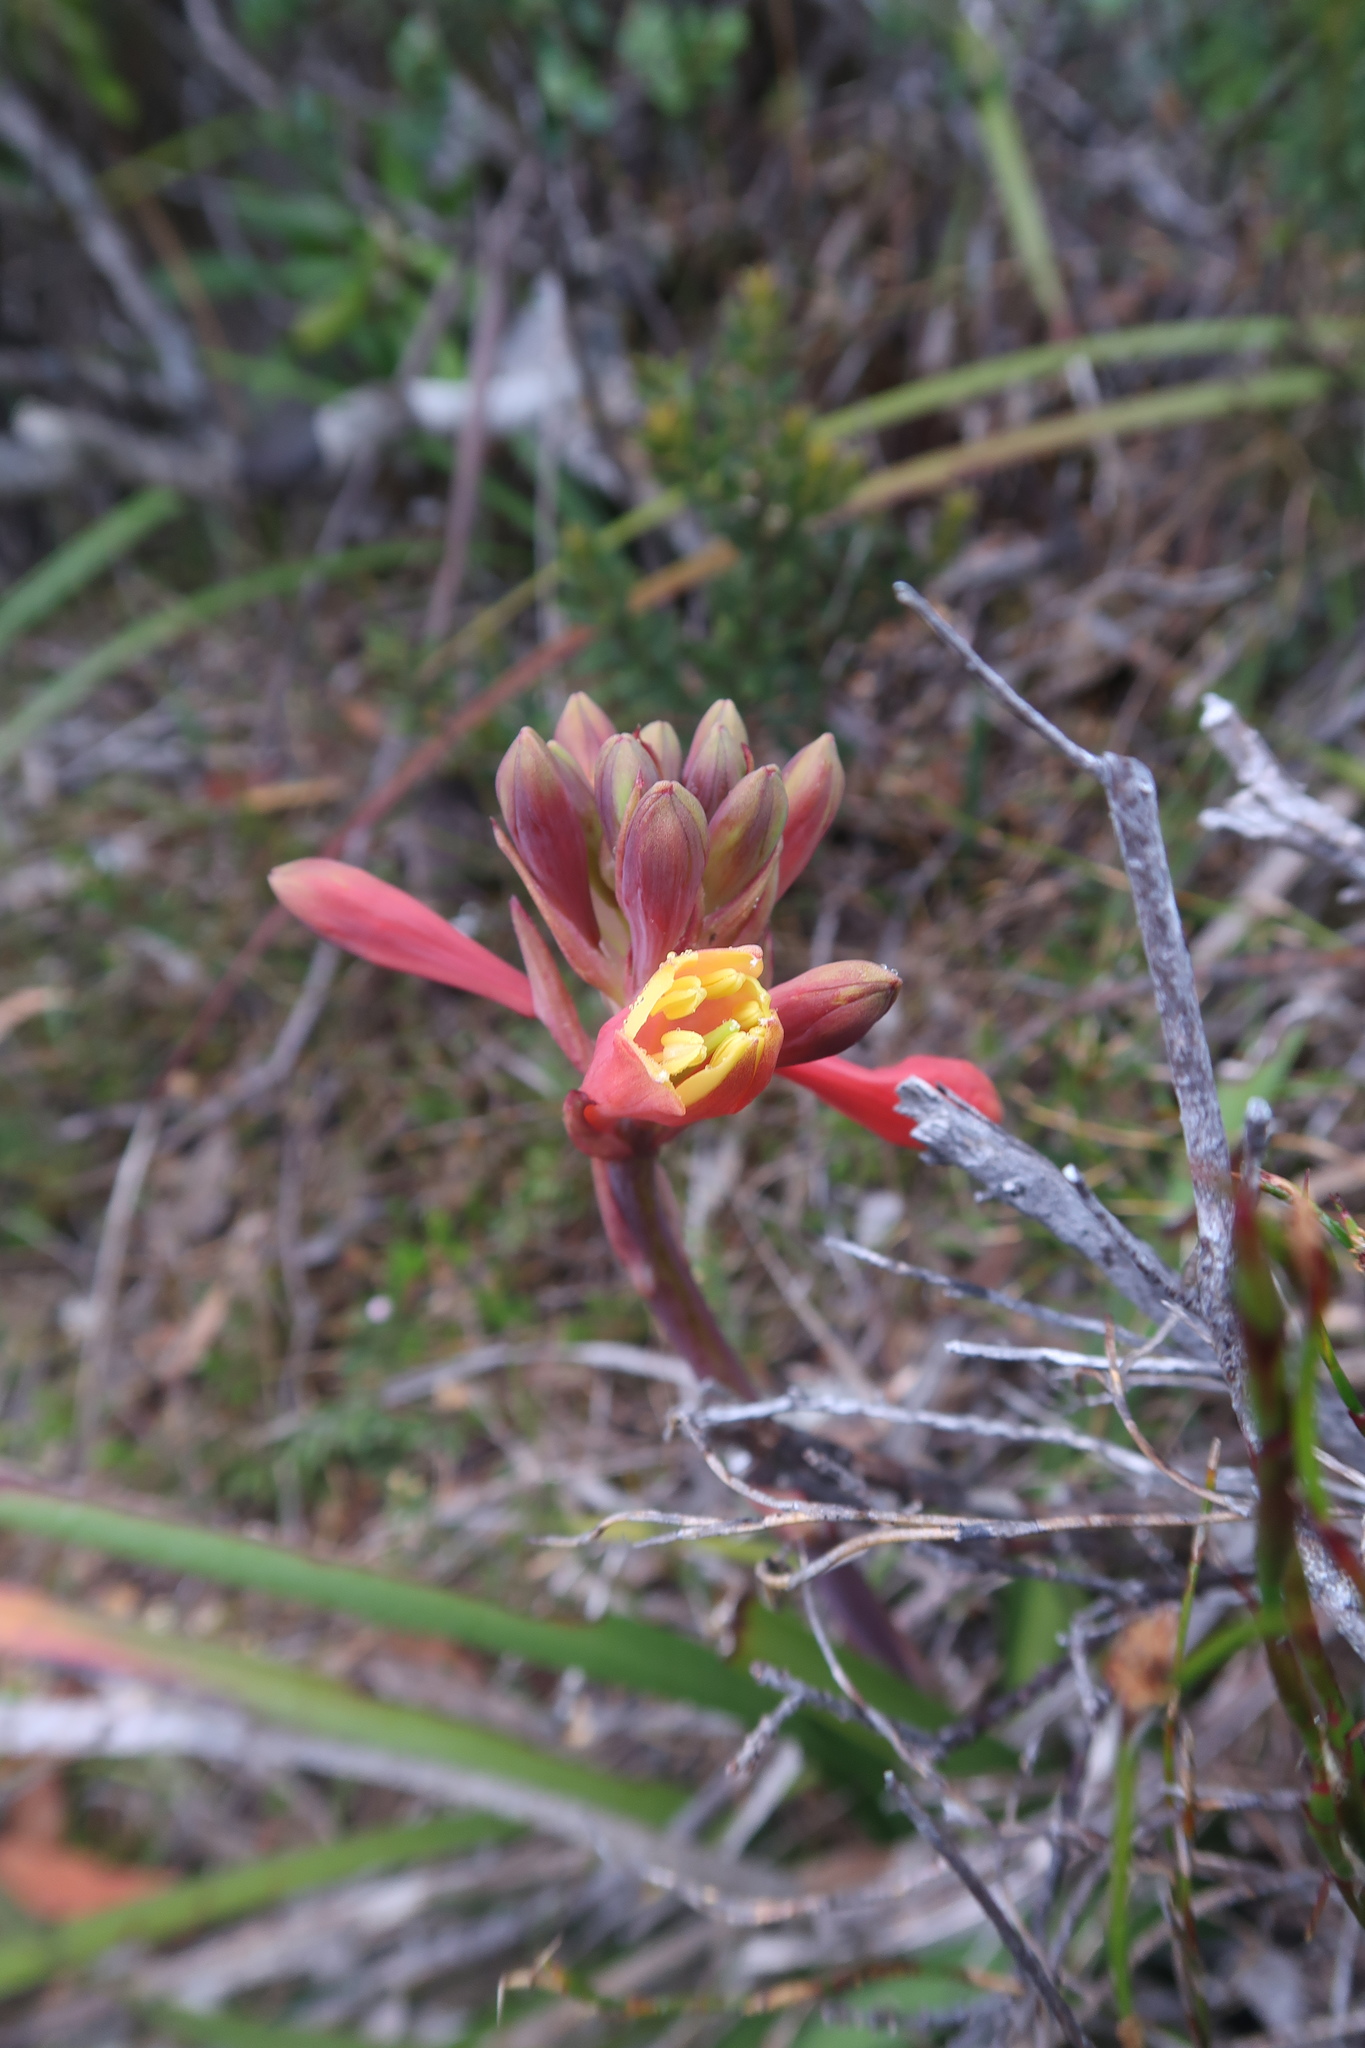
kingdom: Plantae
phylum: Tracheophyta
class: Liliopsida
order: Asparagales
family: Blandfordiaceae
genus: Blandfordia
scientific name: Blandfordia punicea
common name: Tasmanian christmas-bell
